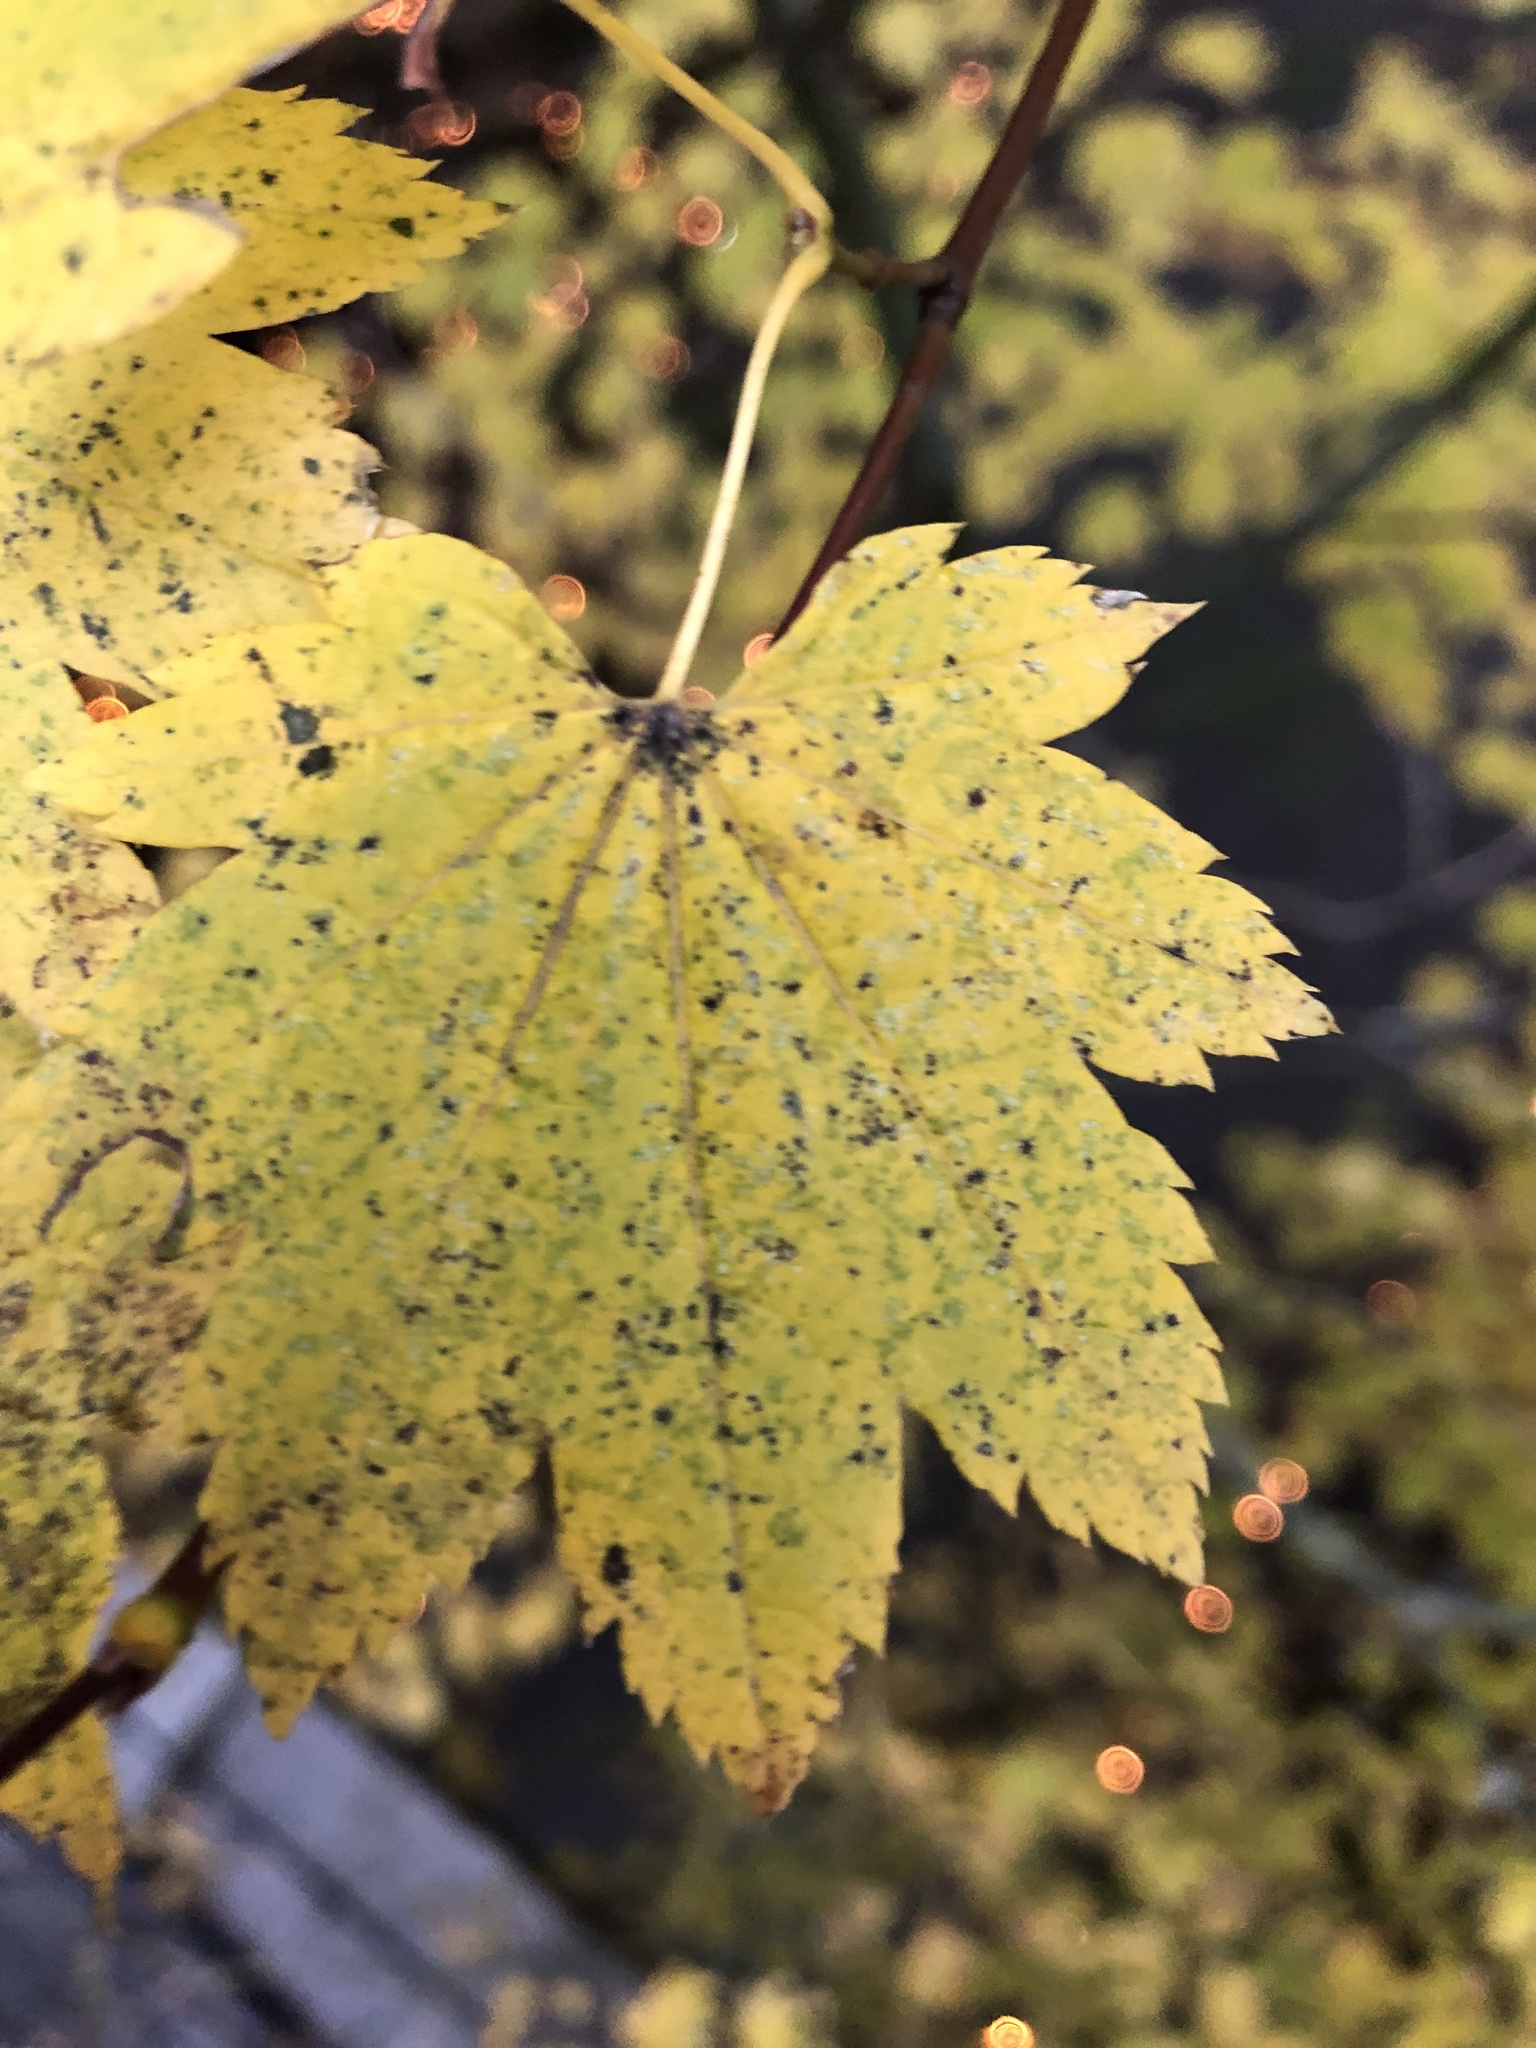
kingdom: Plantae
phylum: Tracheophyta
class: Magnoliopsida
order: Sapindales
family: Sapindaceae
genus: Acer
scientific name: Acer circinatum
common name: Vine maple
